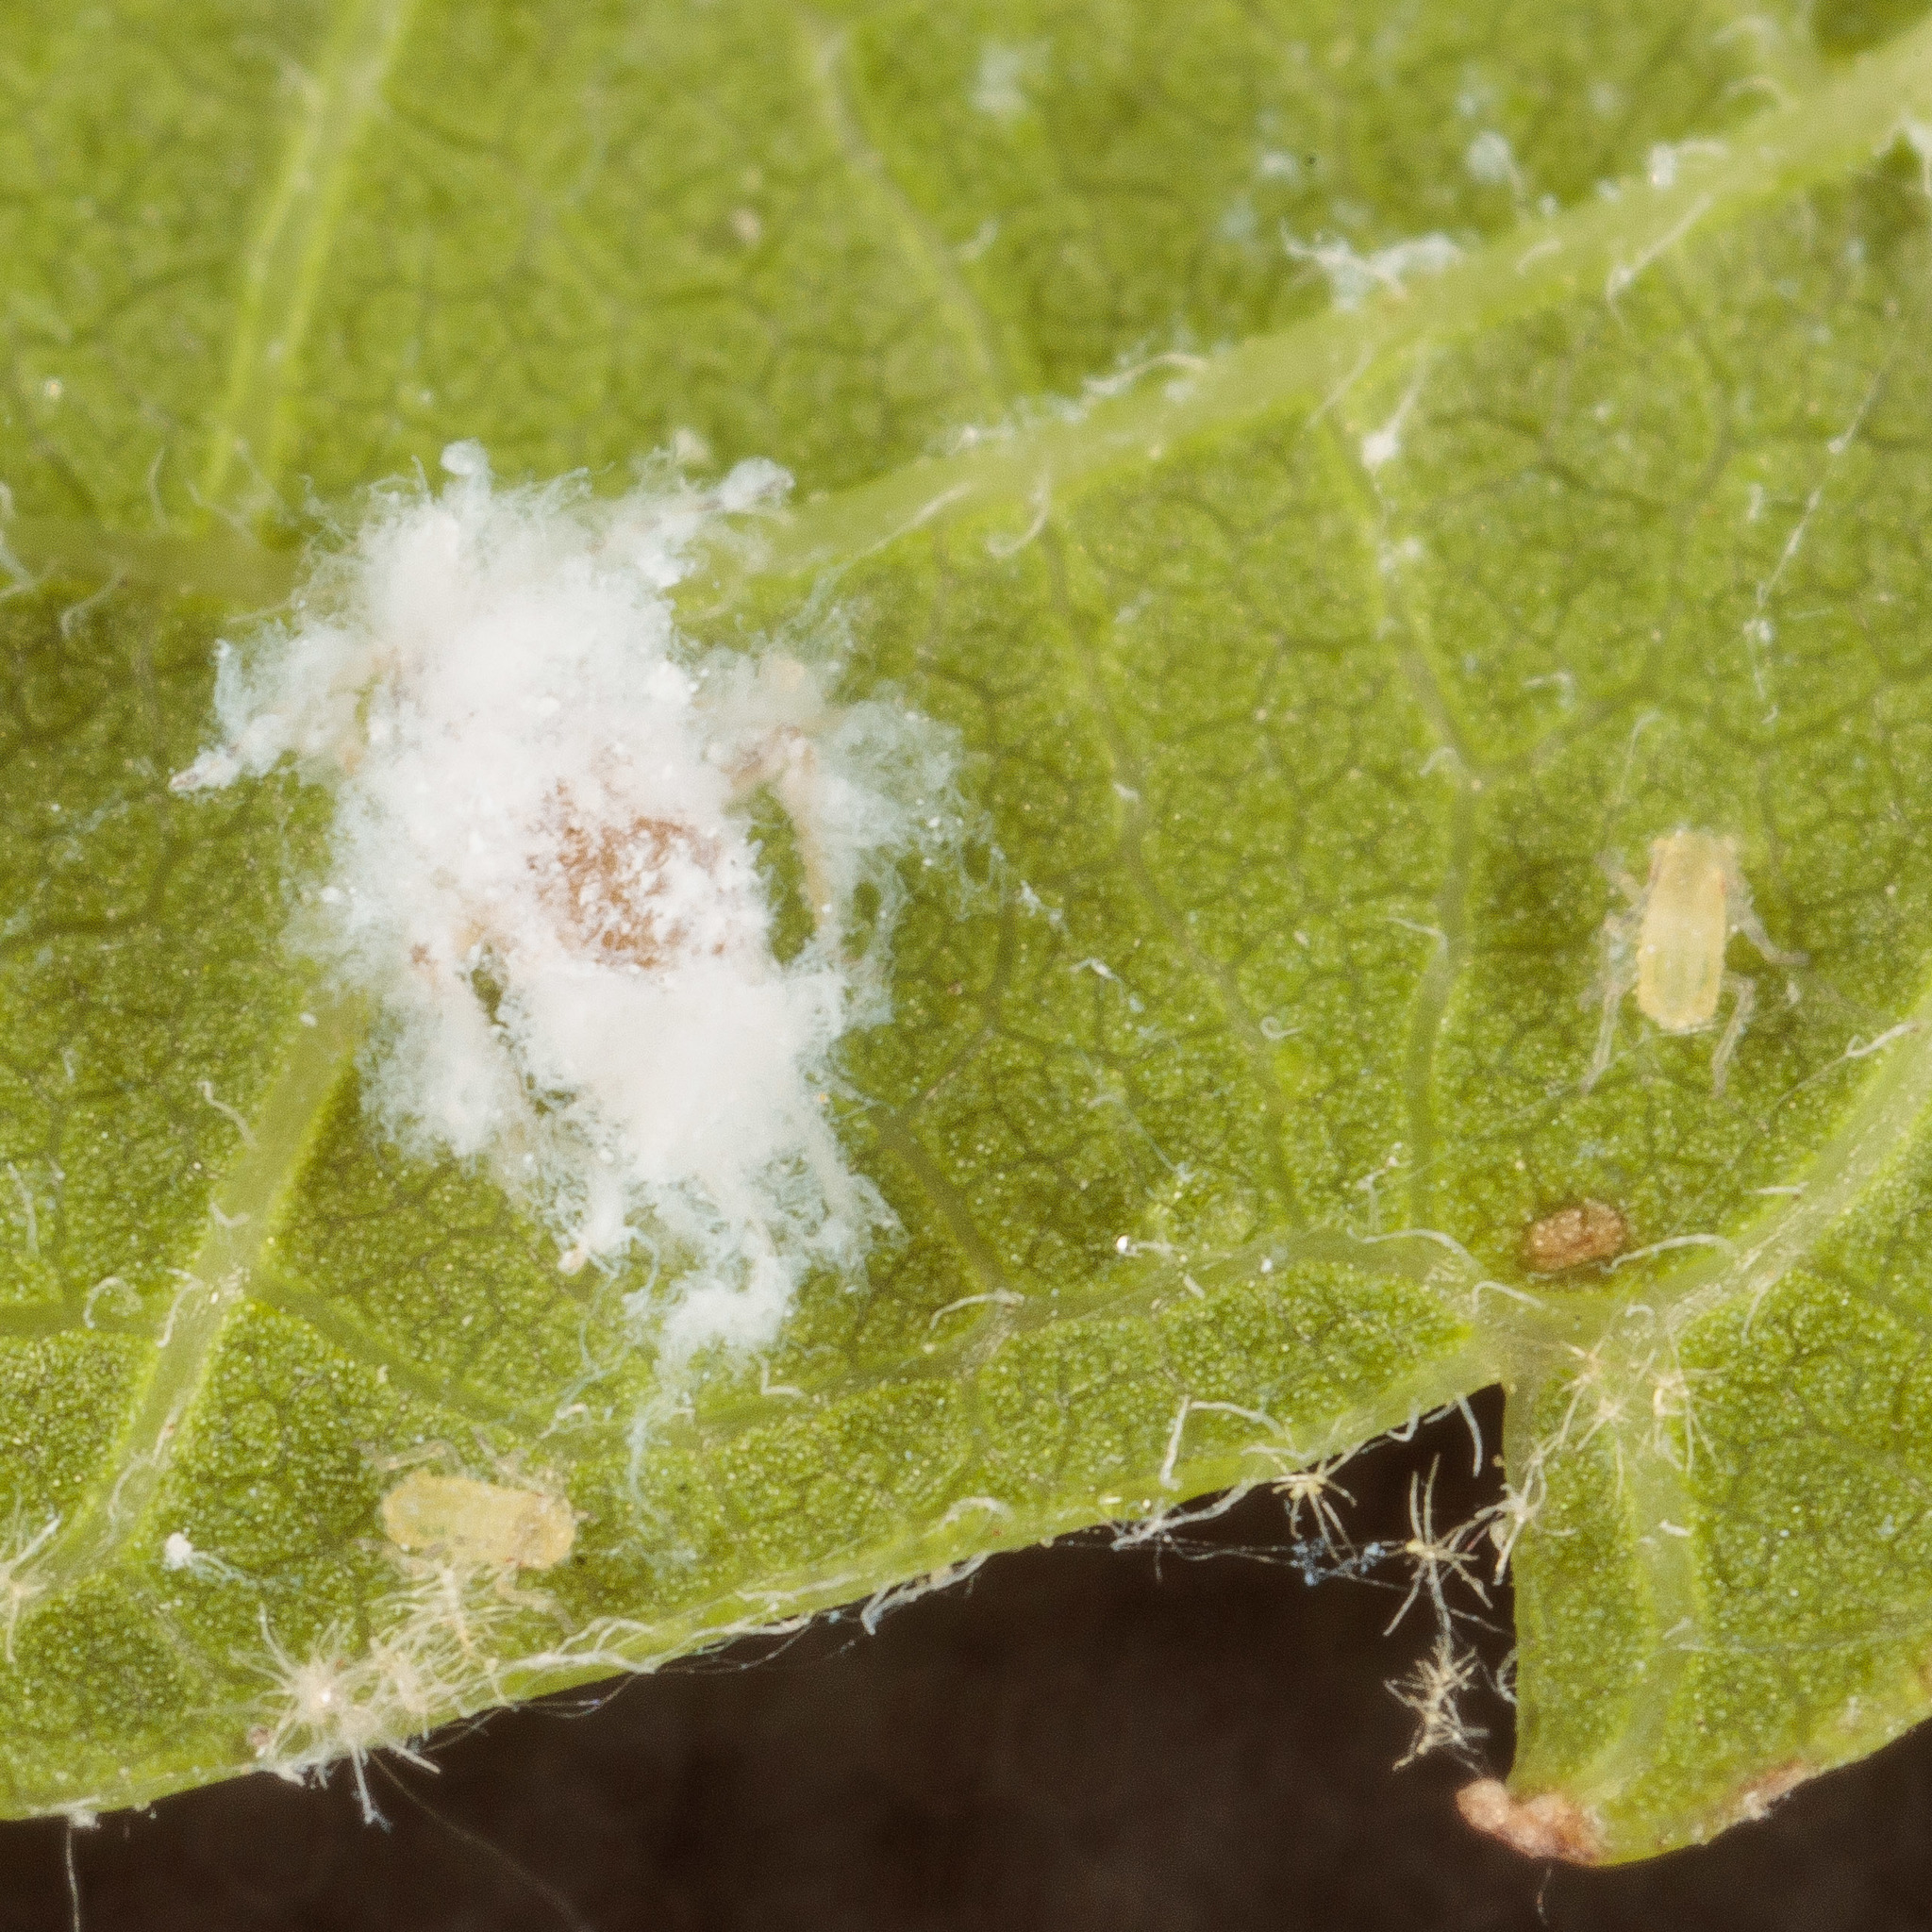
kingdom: Animalia
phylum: Arthropoda
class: Insecta
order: Hemiptera
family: Aphididae
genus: Shivaphis
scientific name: Shivaphis celti
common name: Asian wooly hackberry aphid
